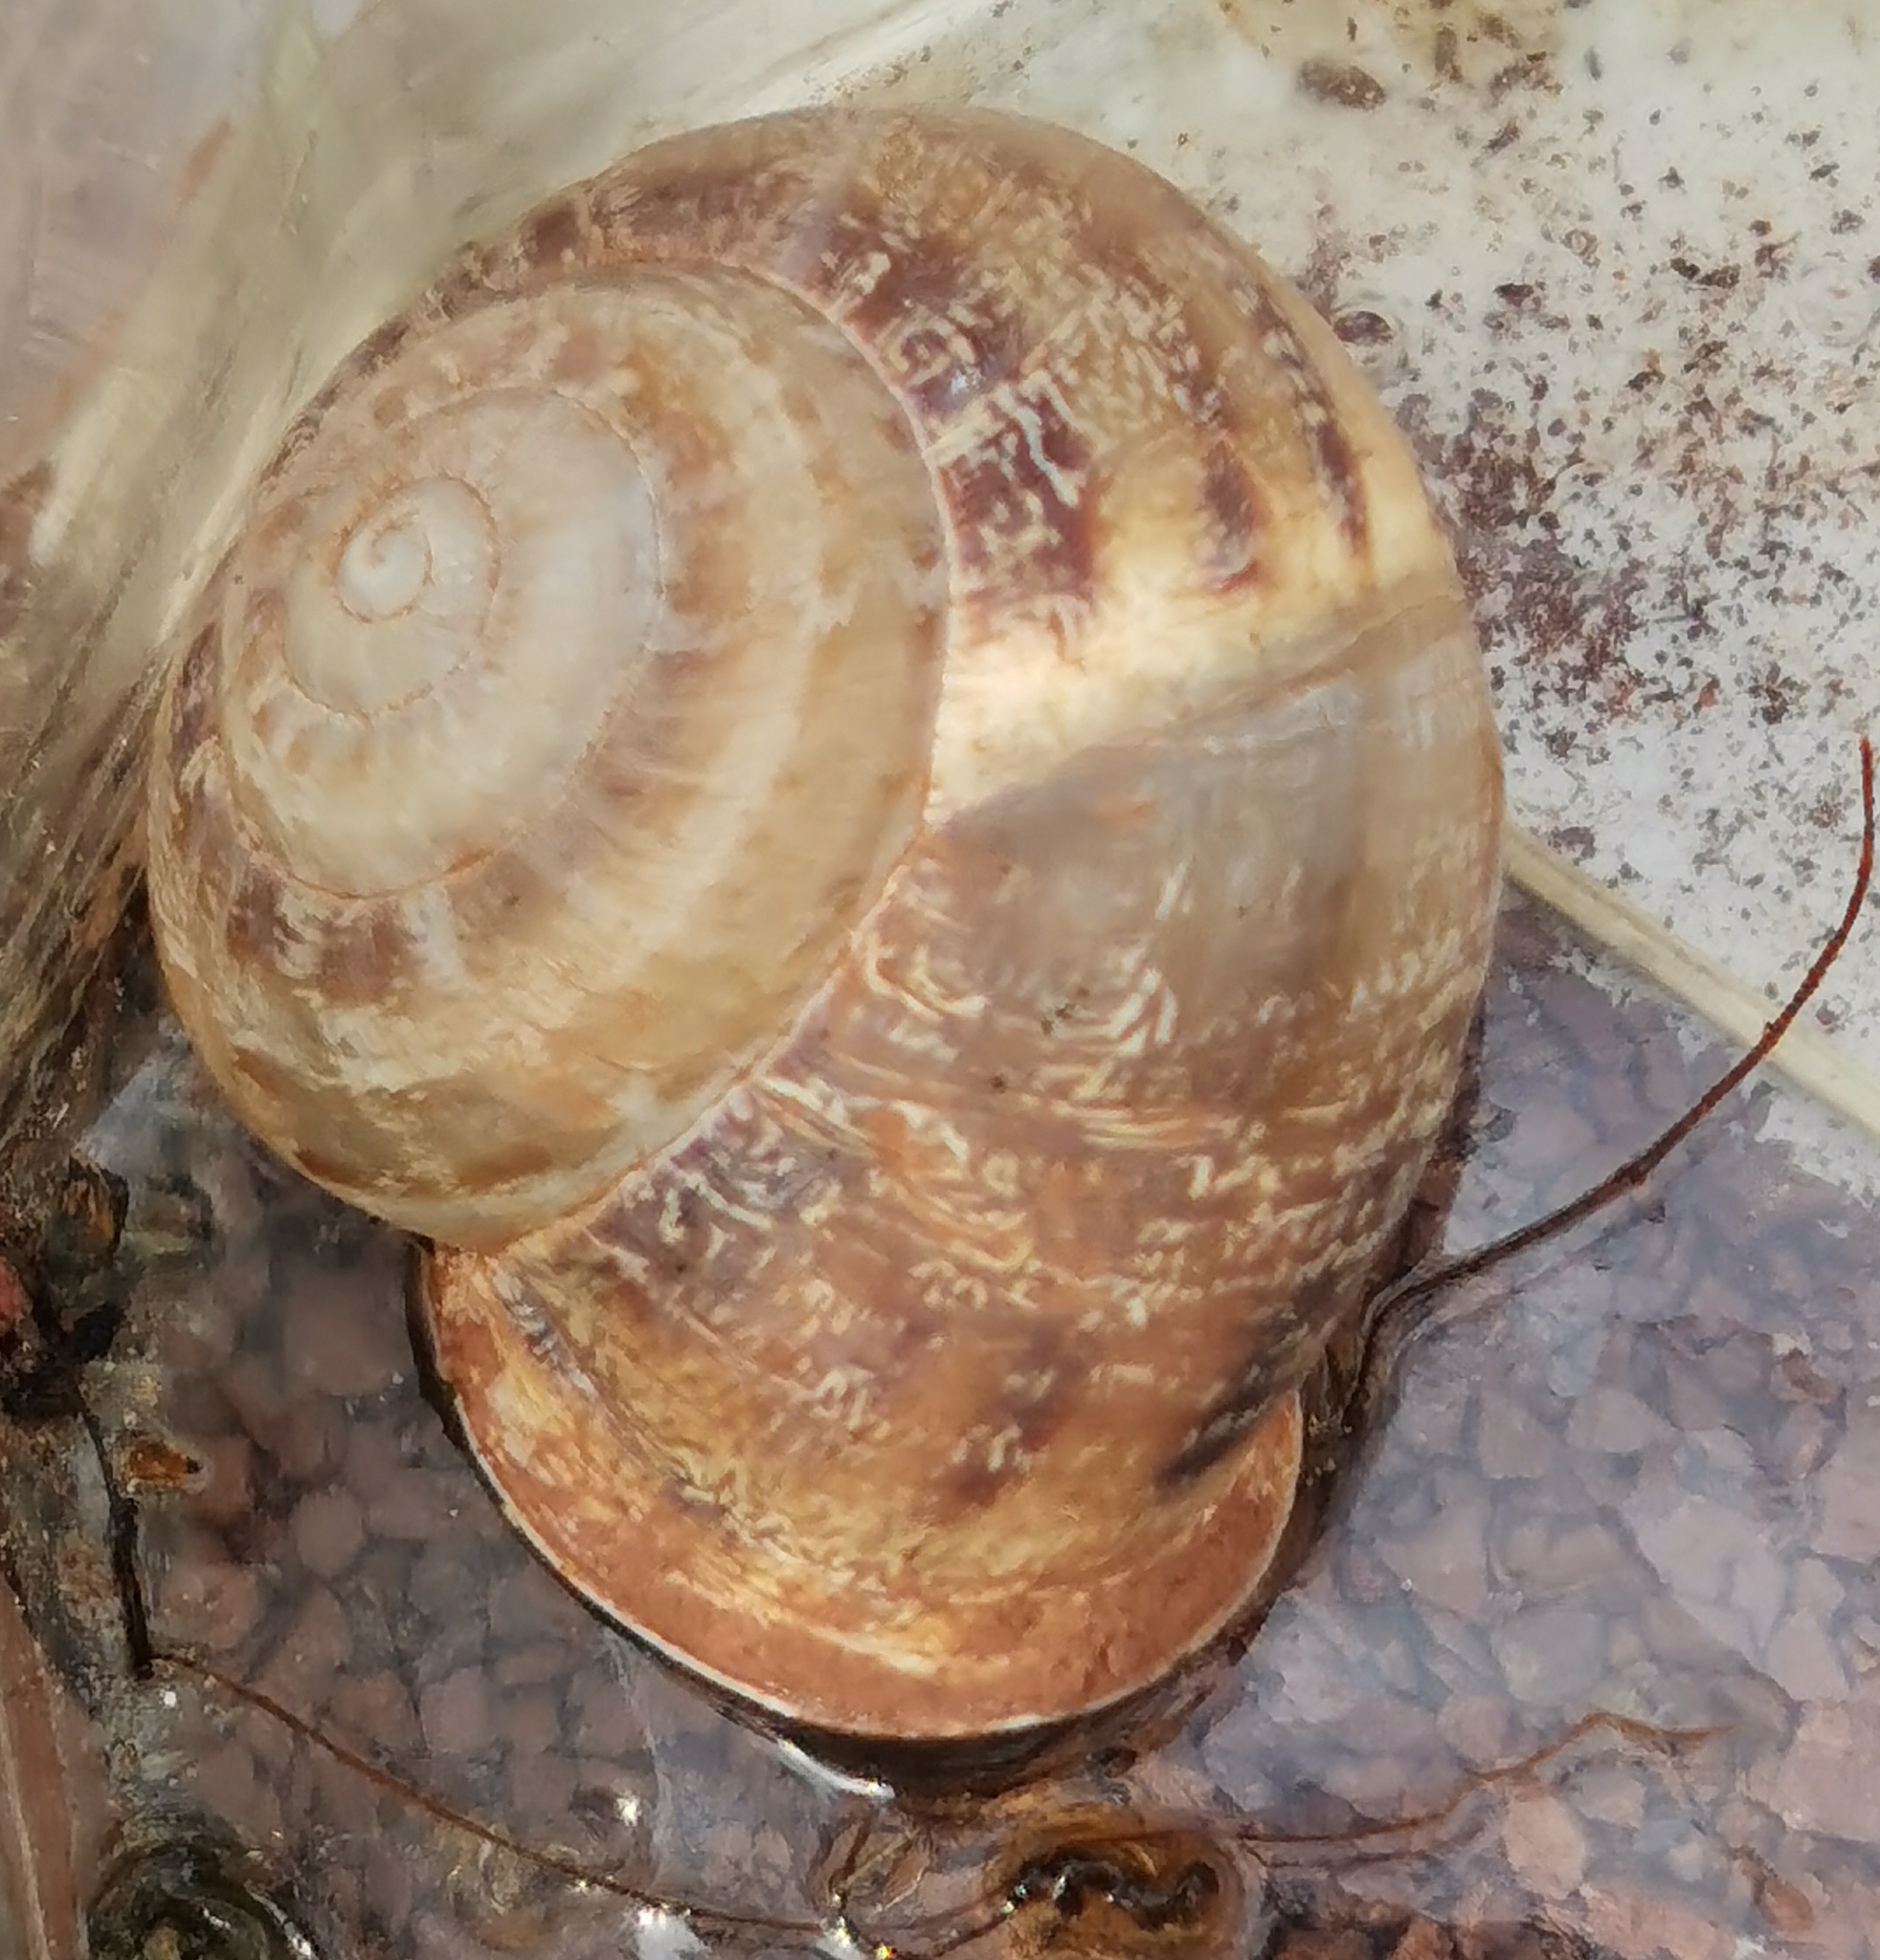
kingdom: Animalia
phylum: Mollusca
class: Gastropoda
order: Stylommatophora
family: Helicidae
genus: Eobania
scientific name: Eobania vermiculata
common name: Chocolateband snail
